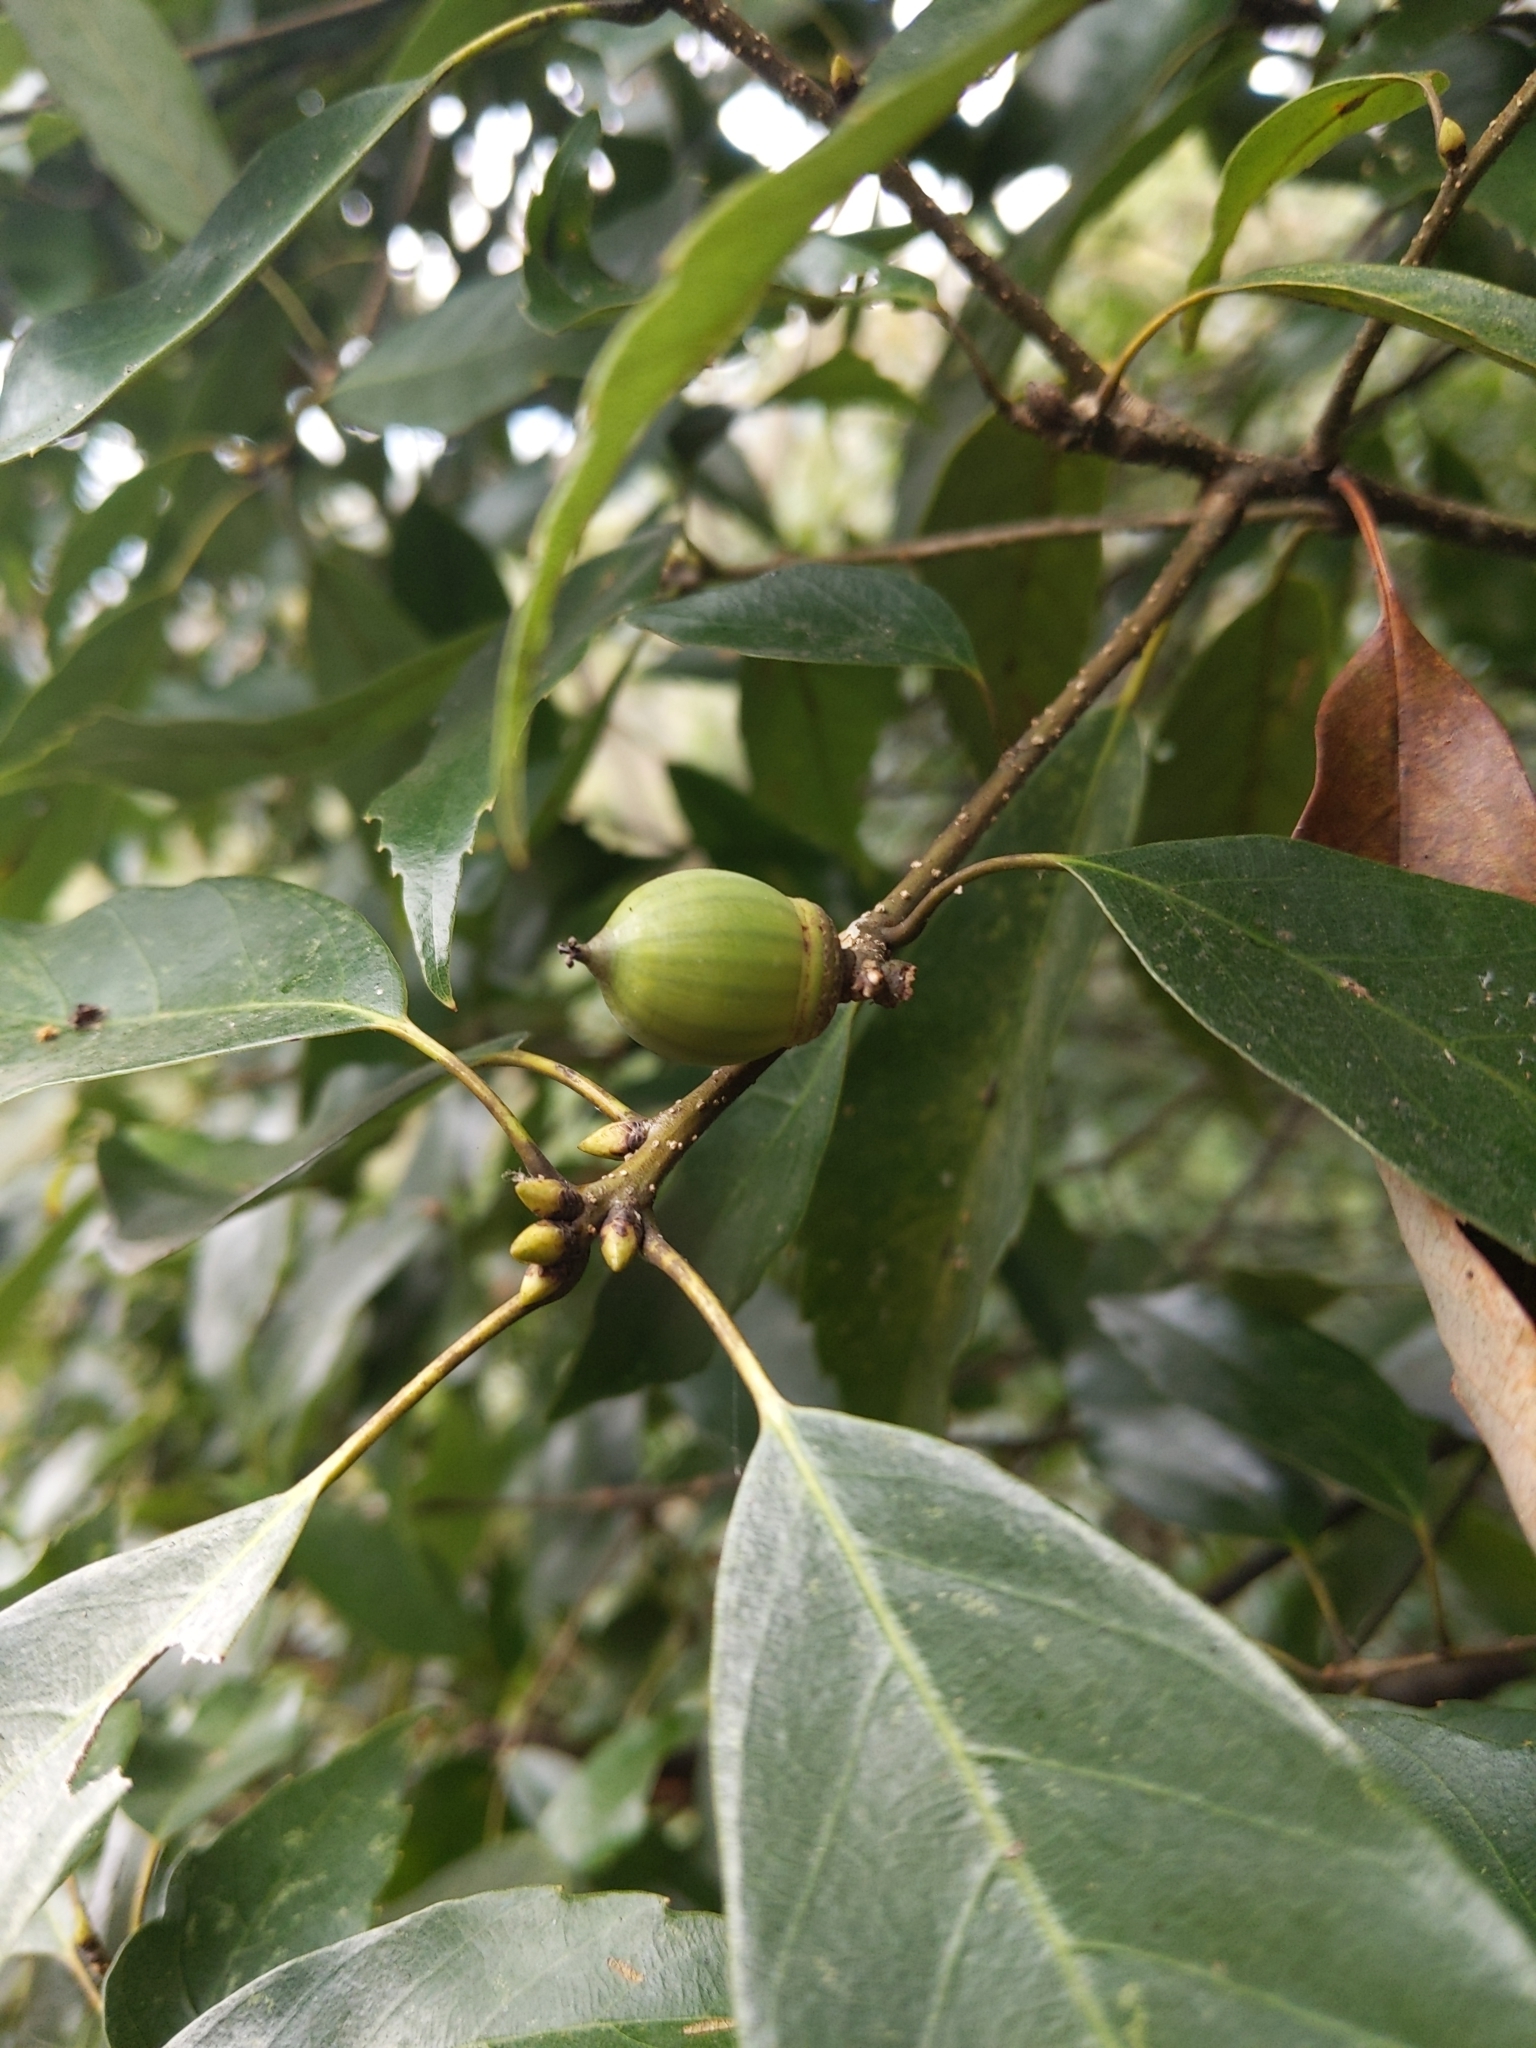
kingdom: Plantae
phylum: Tracheophyta
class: Magnoliopsida
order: Fagales
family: Fagaceae
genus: Quercus
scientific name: Quercus glauca
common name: Ring-cup oak
